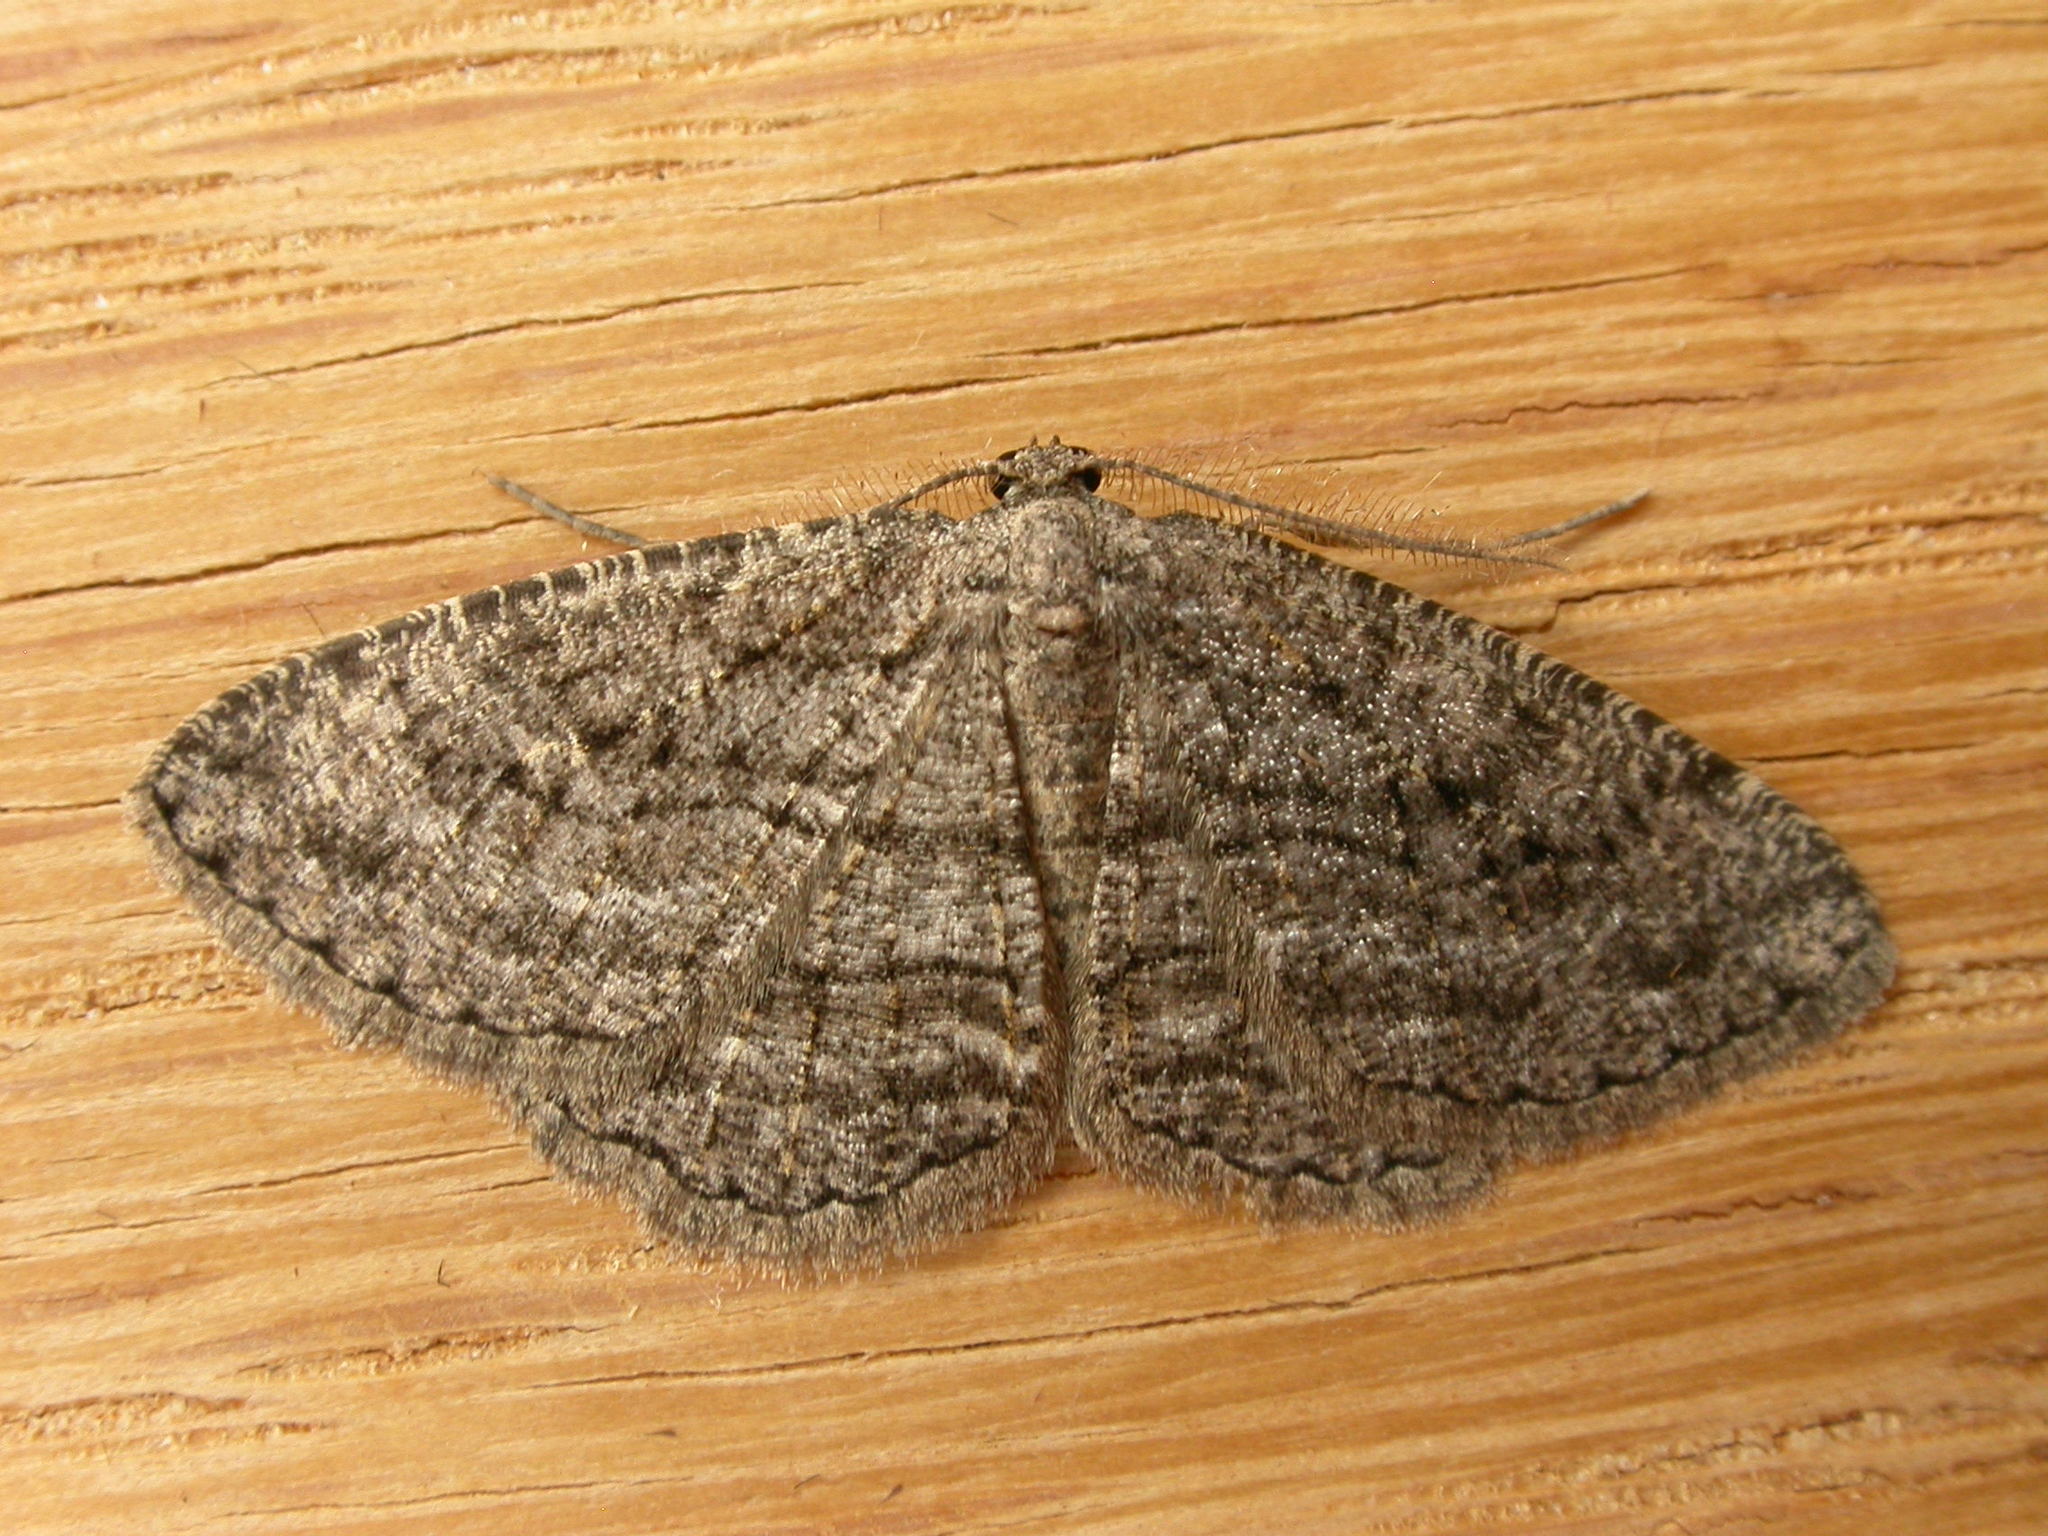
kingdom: Animalia
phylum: Arthropoda
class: Insecta
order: Lepidoptera
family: Geometridae
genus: Zermizinga
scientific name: Zermizinga sinuata
